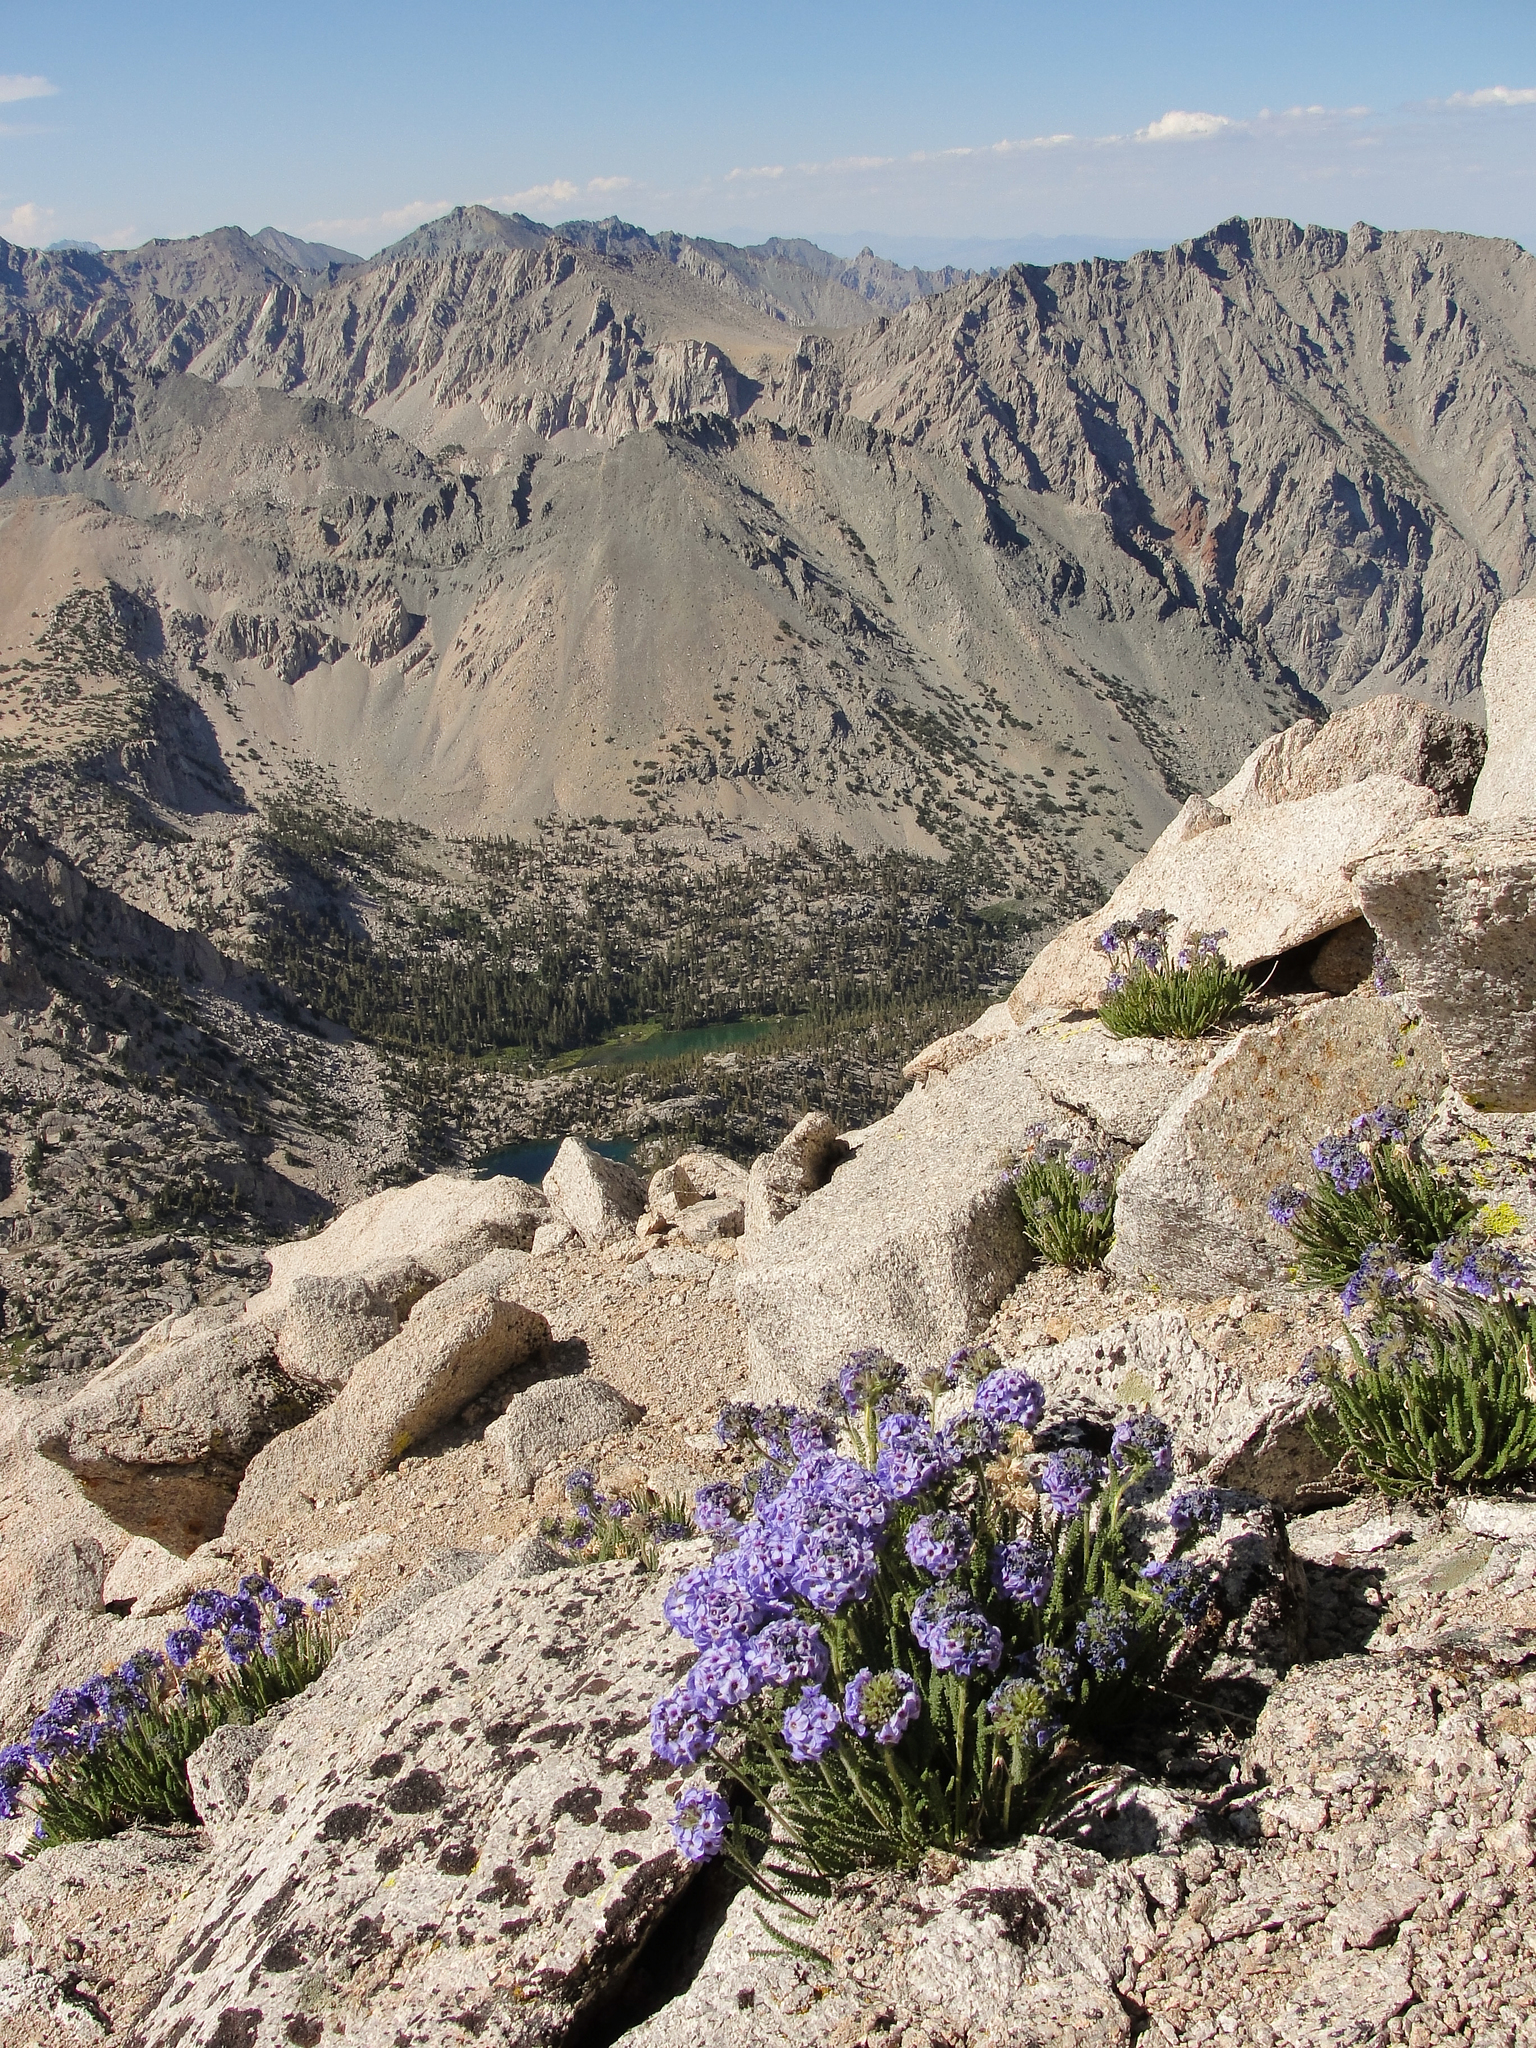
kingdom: Plantae
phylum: Tracheophyta
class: Magnoliopsida
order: Ericales
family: Polemoniaceae
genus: Polemonium
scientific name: Polemonium eximium
